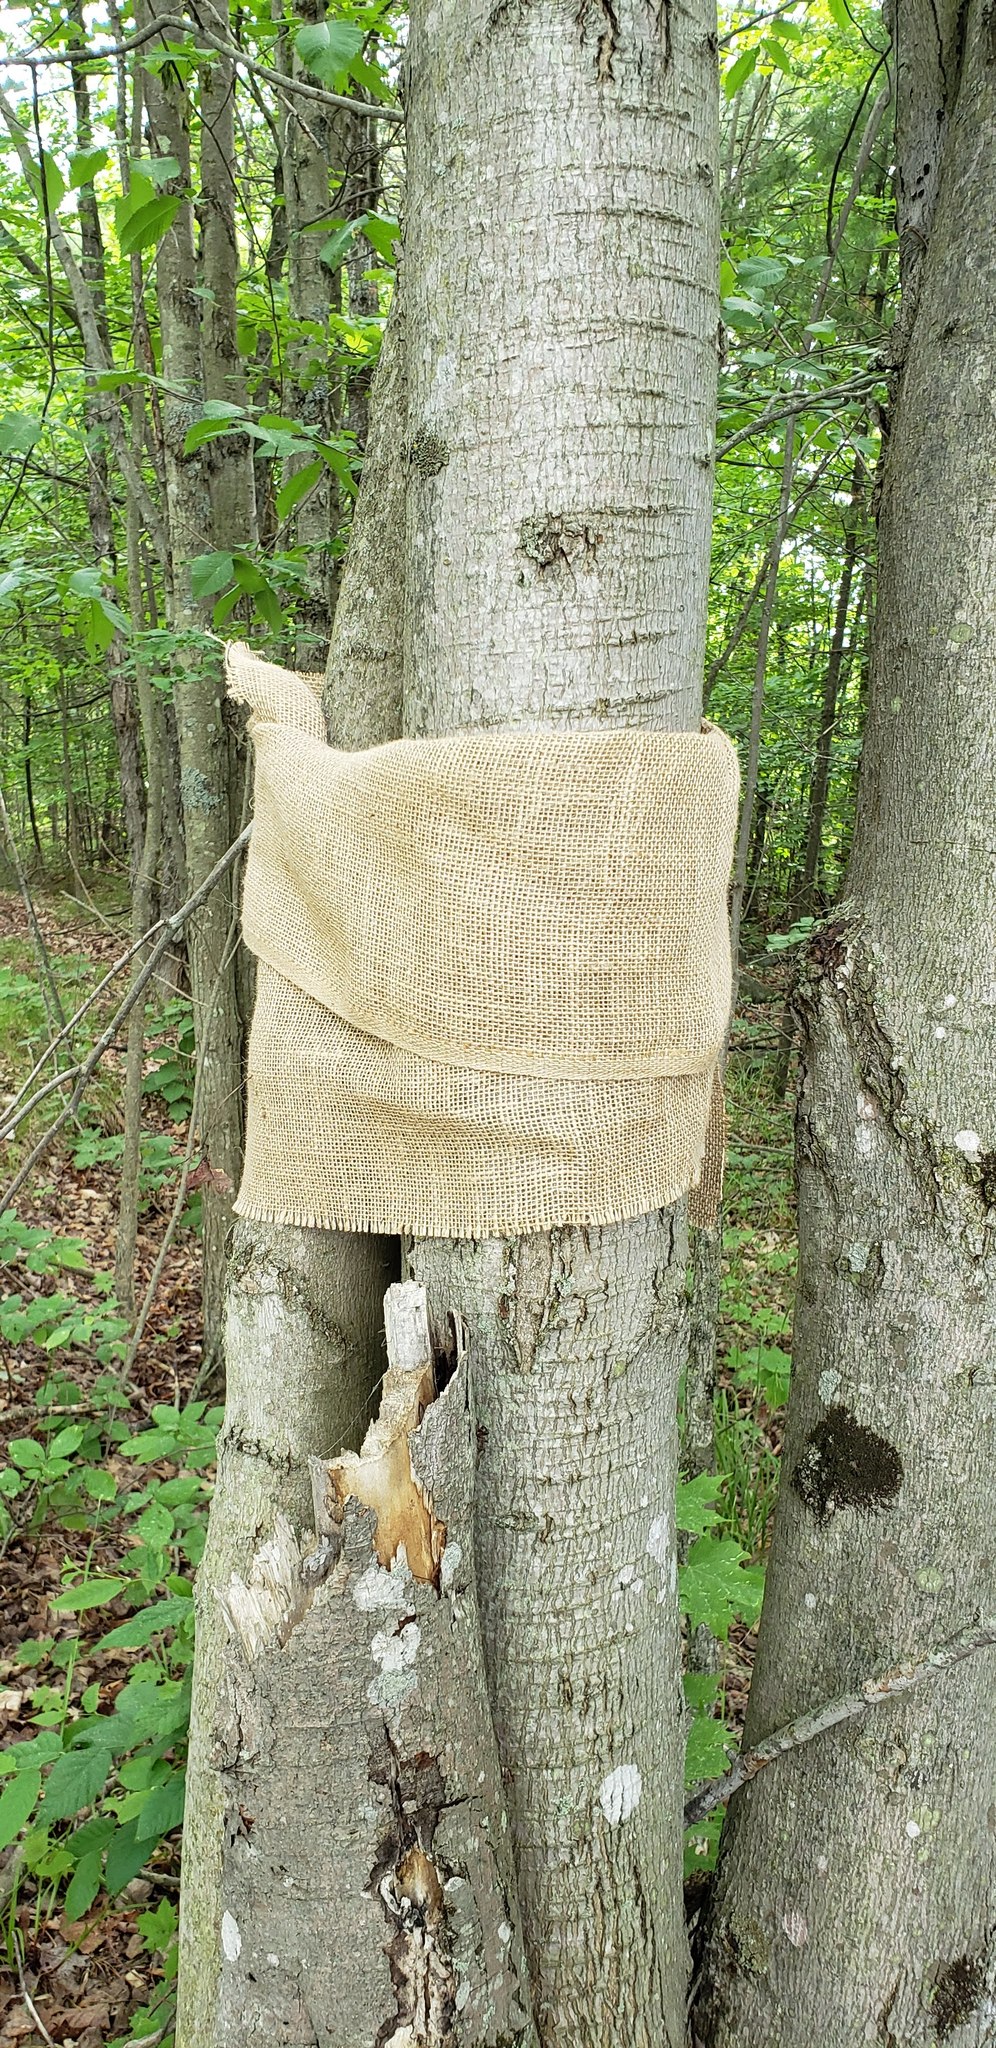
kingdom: Plantae
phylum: Tracheophyta
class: Magnoliopsida
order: Fagales
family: Fagaceae
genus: Fagus
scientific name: Fagus grandifolia
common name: American beech
